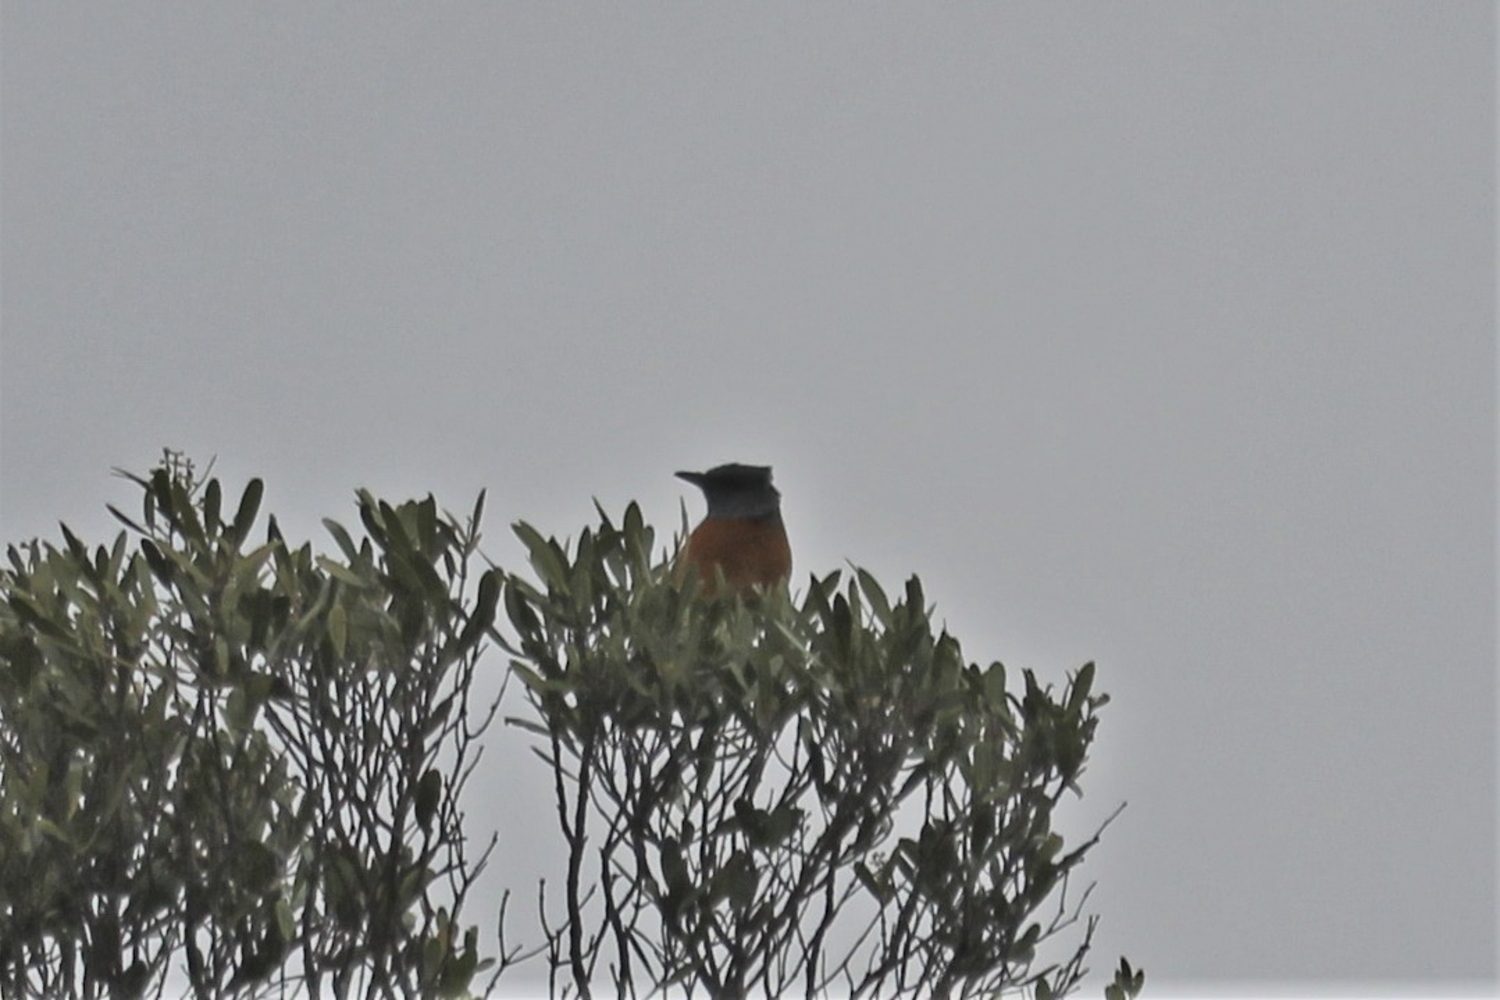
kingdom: Animalia
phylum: Chordata
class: Aves
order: Passeriformes
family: Muscicapidae
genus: Monticola
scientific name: Monticola rupestris
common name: Cape rock thrush
